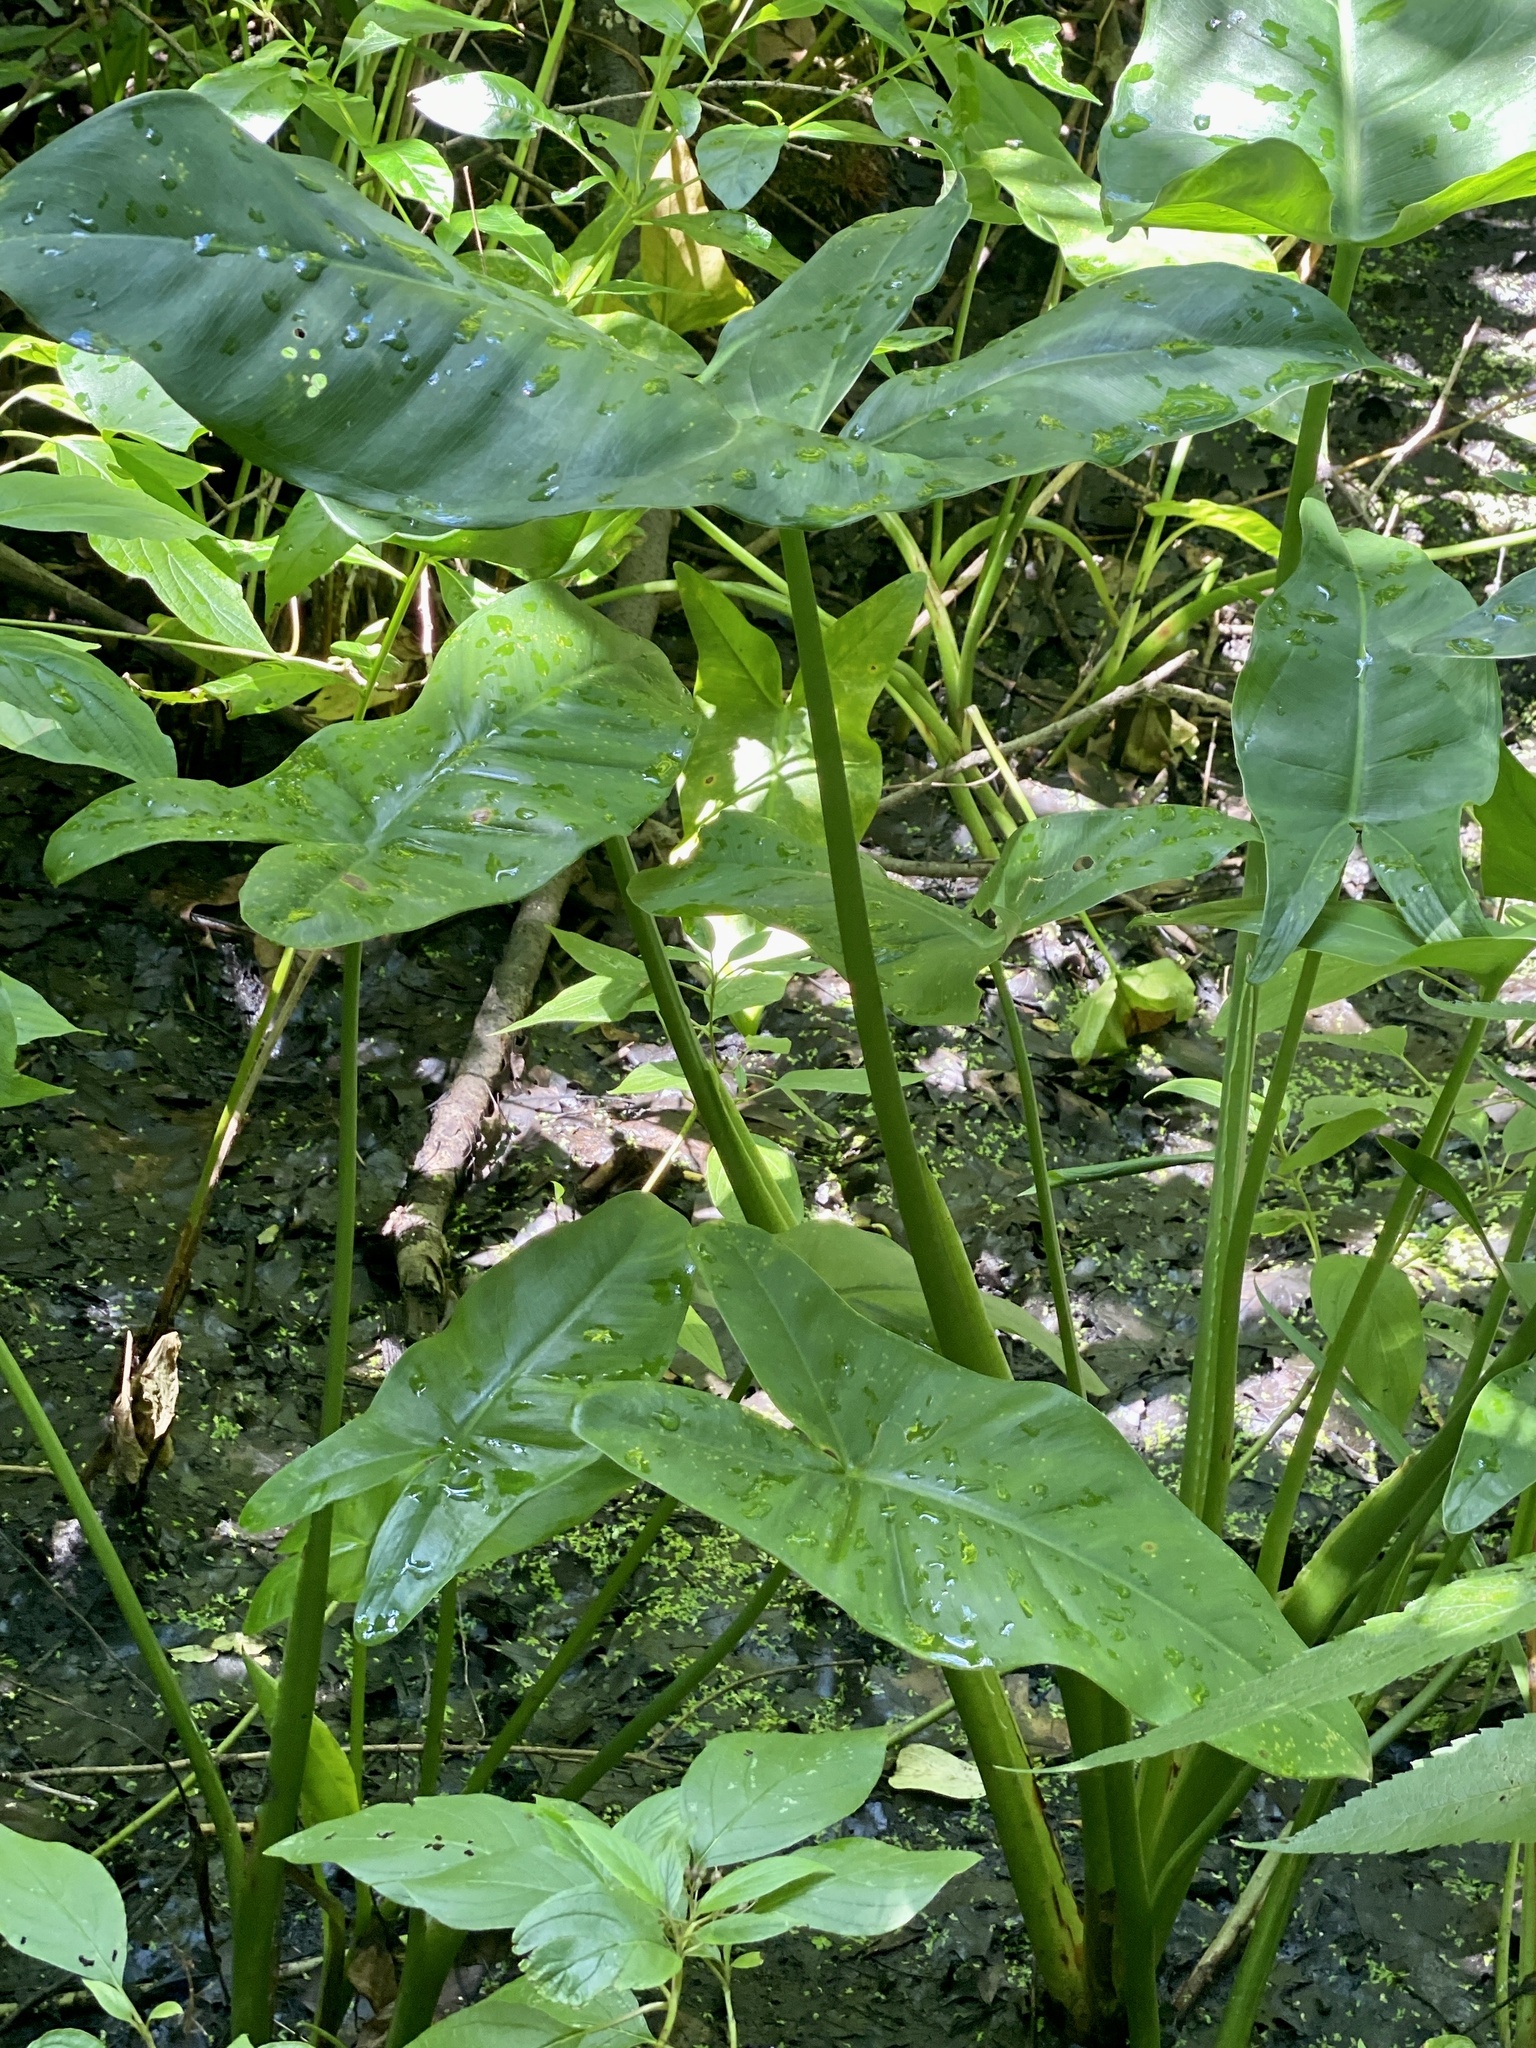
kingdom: Plantae
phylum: Tracheophyta
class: Liliopsida
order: Alismatales
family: Araceae
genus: Peltandra
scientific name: Peltandra virginica
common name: Arrow arum
